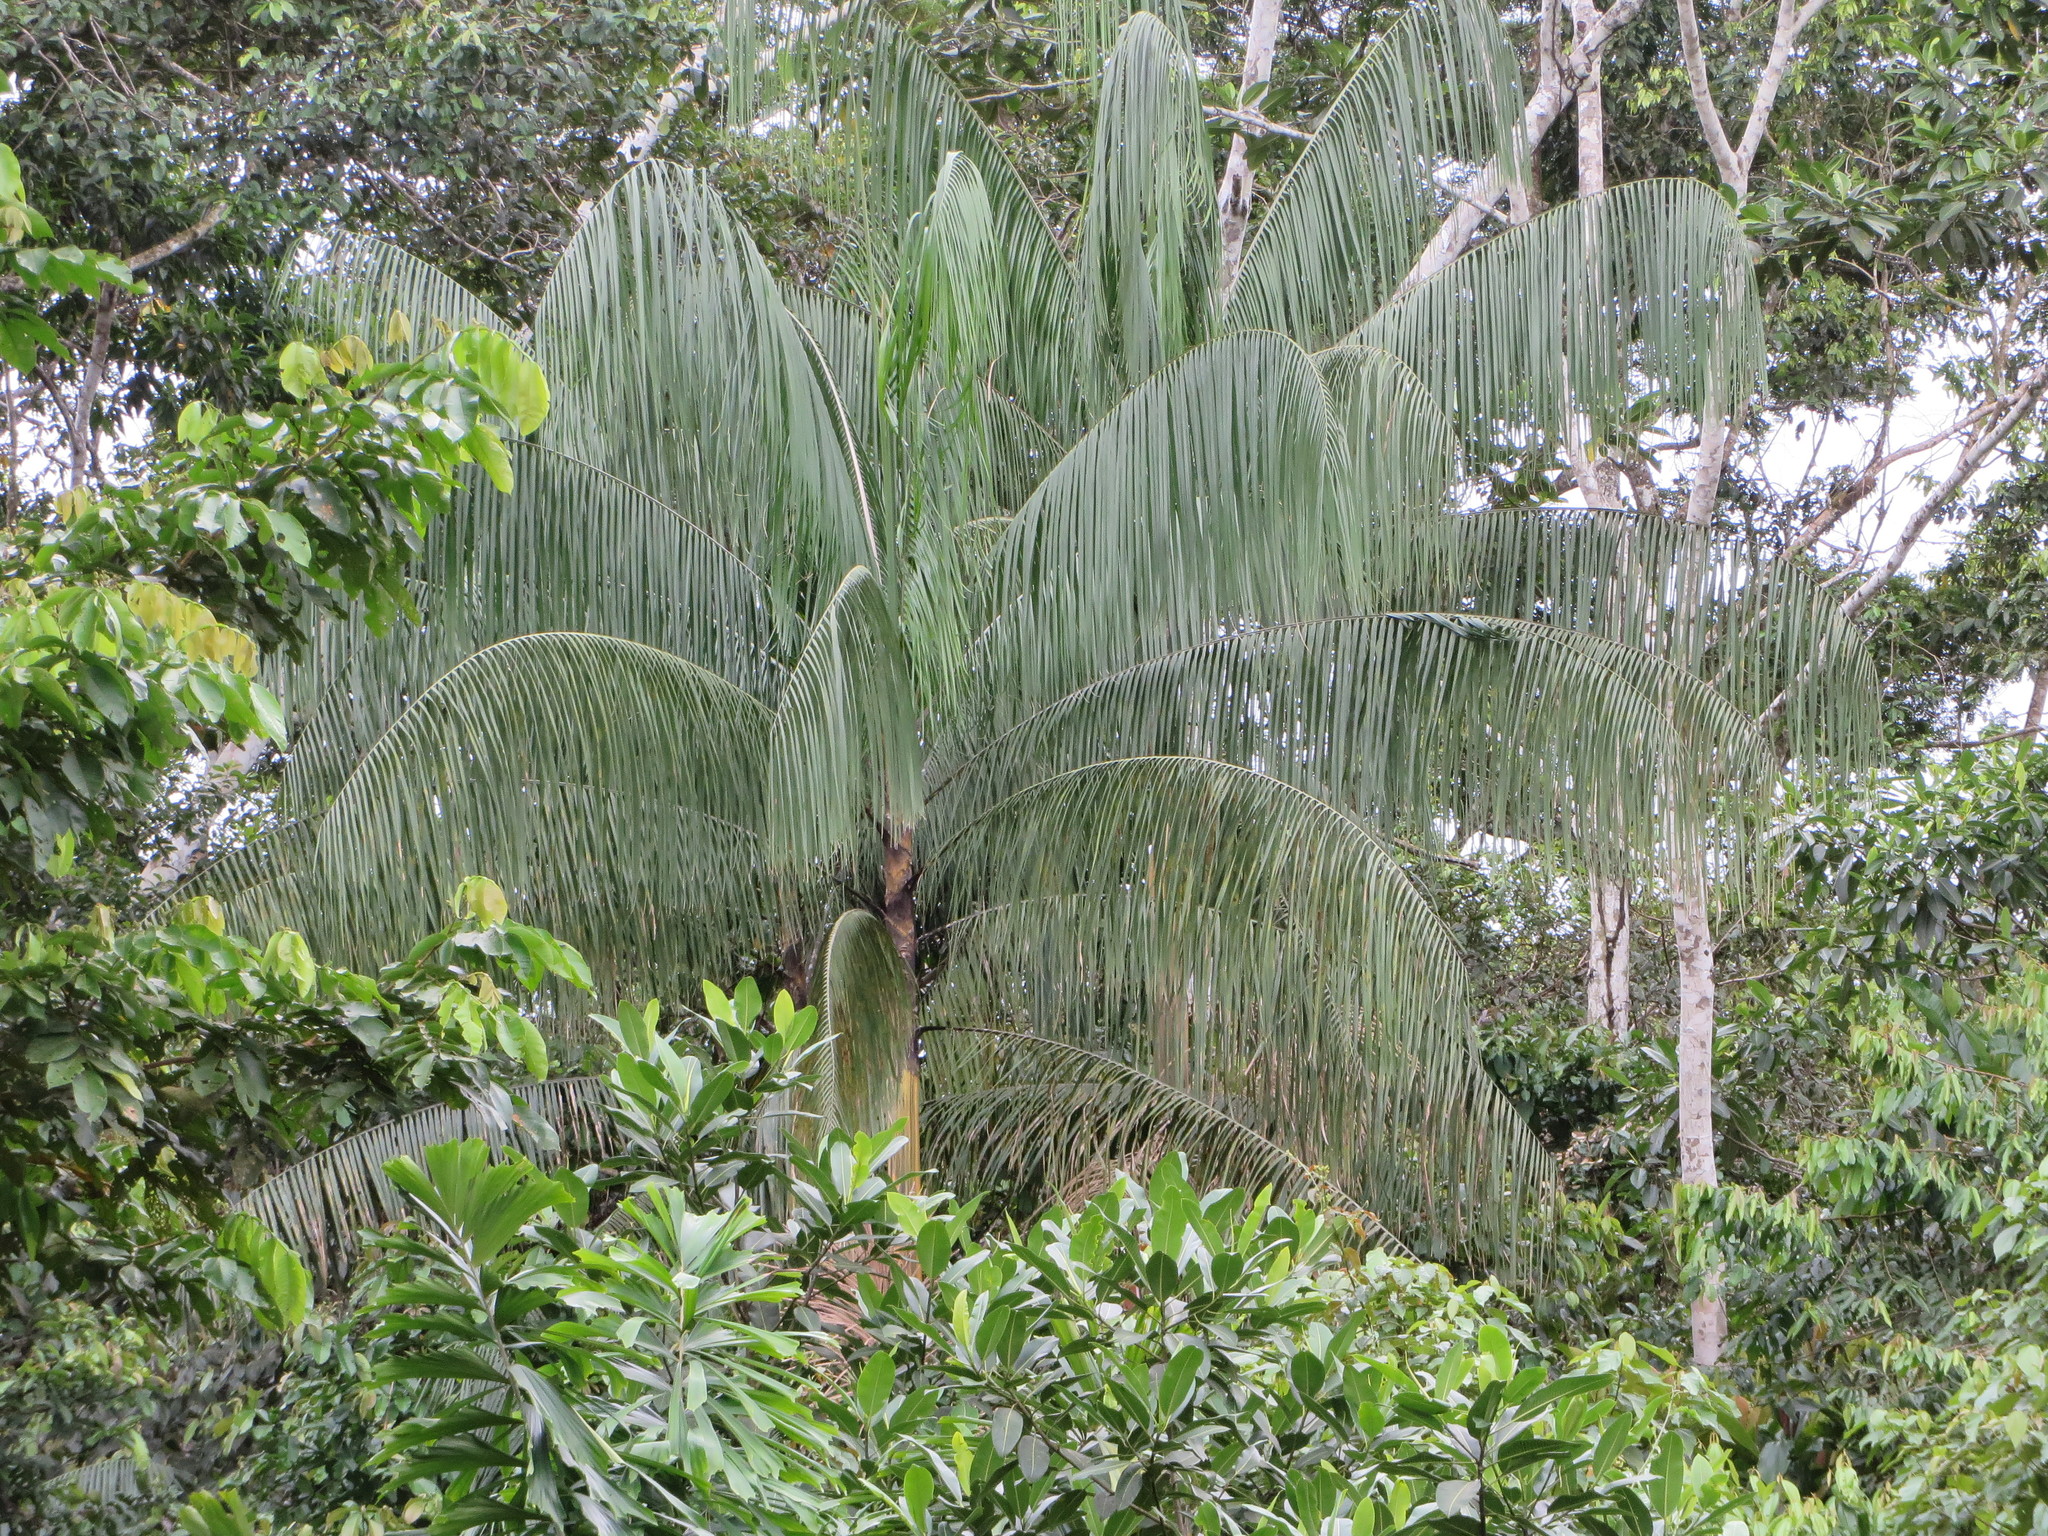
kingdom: Plantae
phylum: Tracheophyta
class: Liliopsida
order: Arecales
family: Arecaceae
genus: Euterpe
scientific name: Euterpe precatoria
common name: Mountain-cabbage
